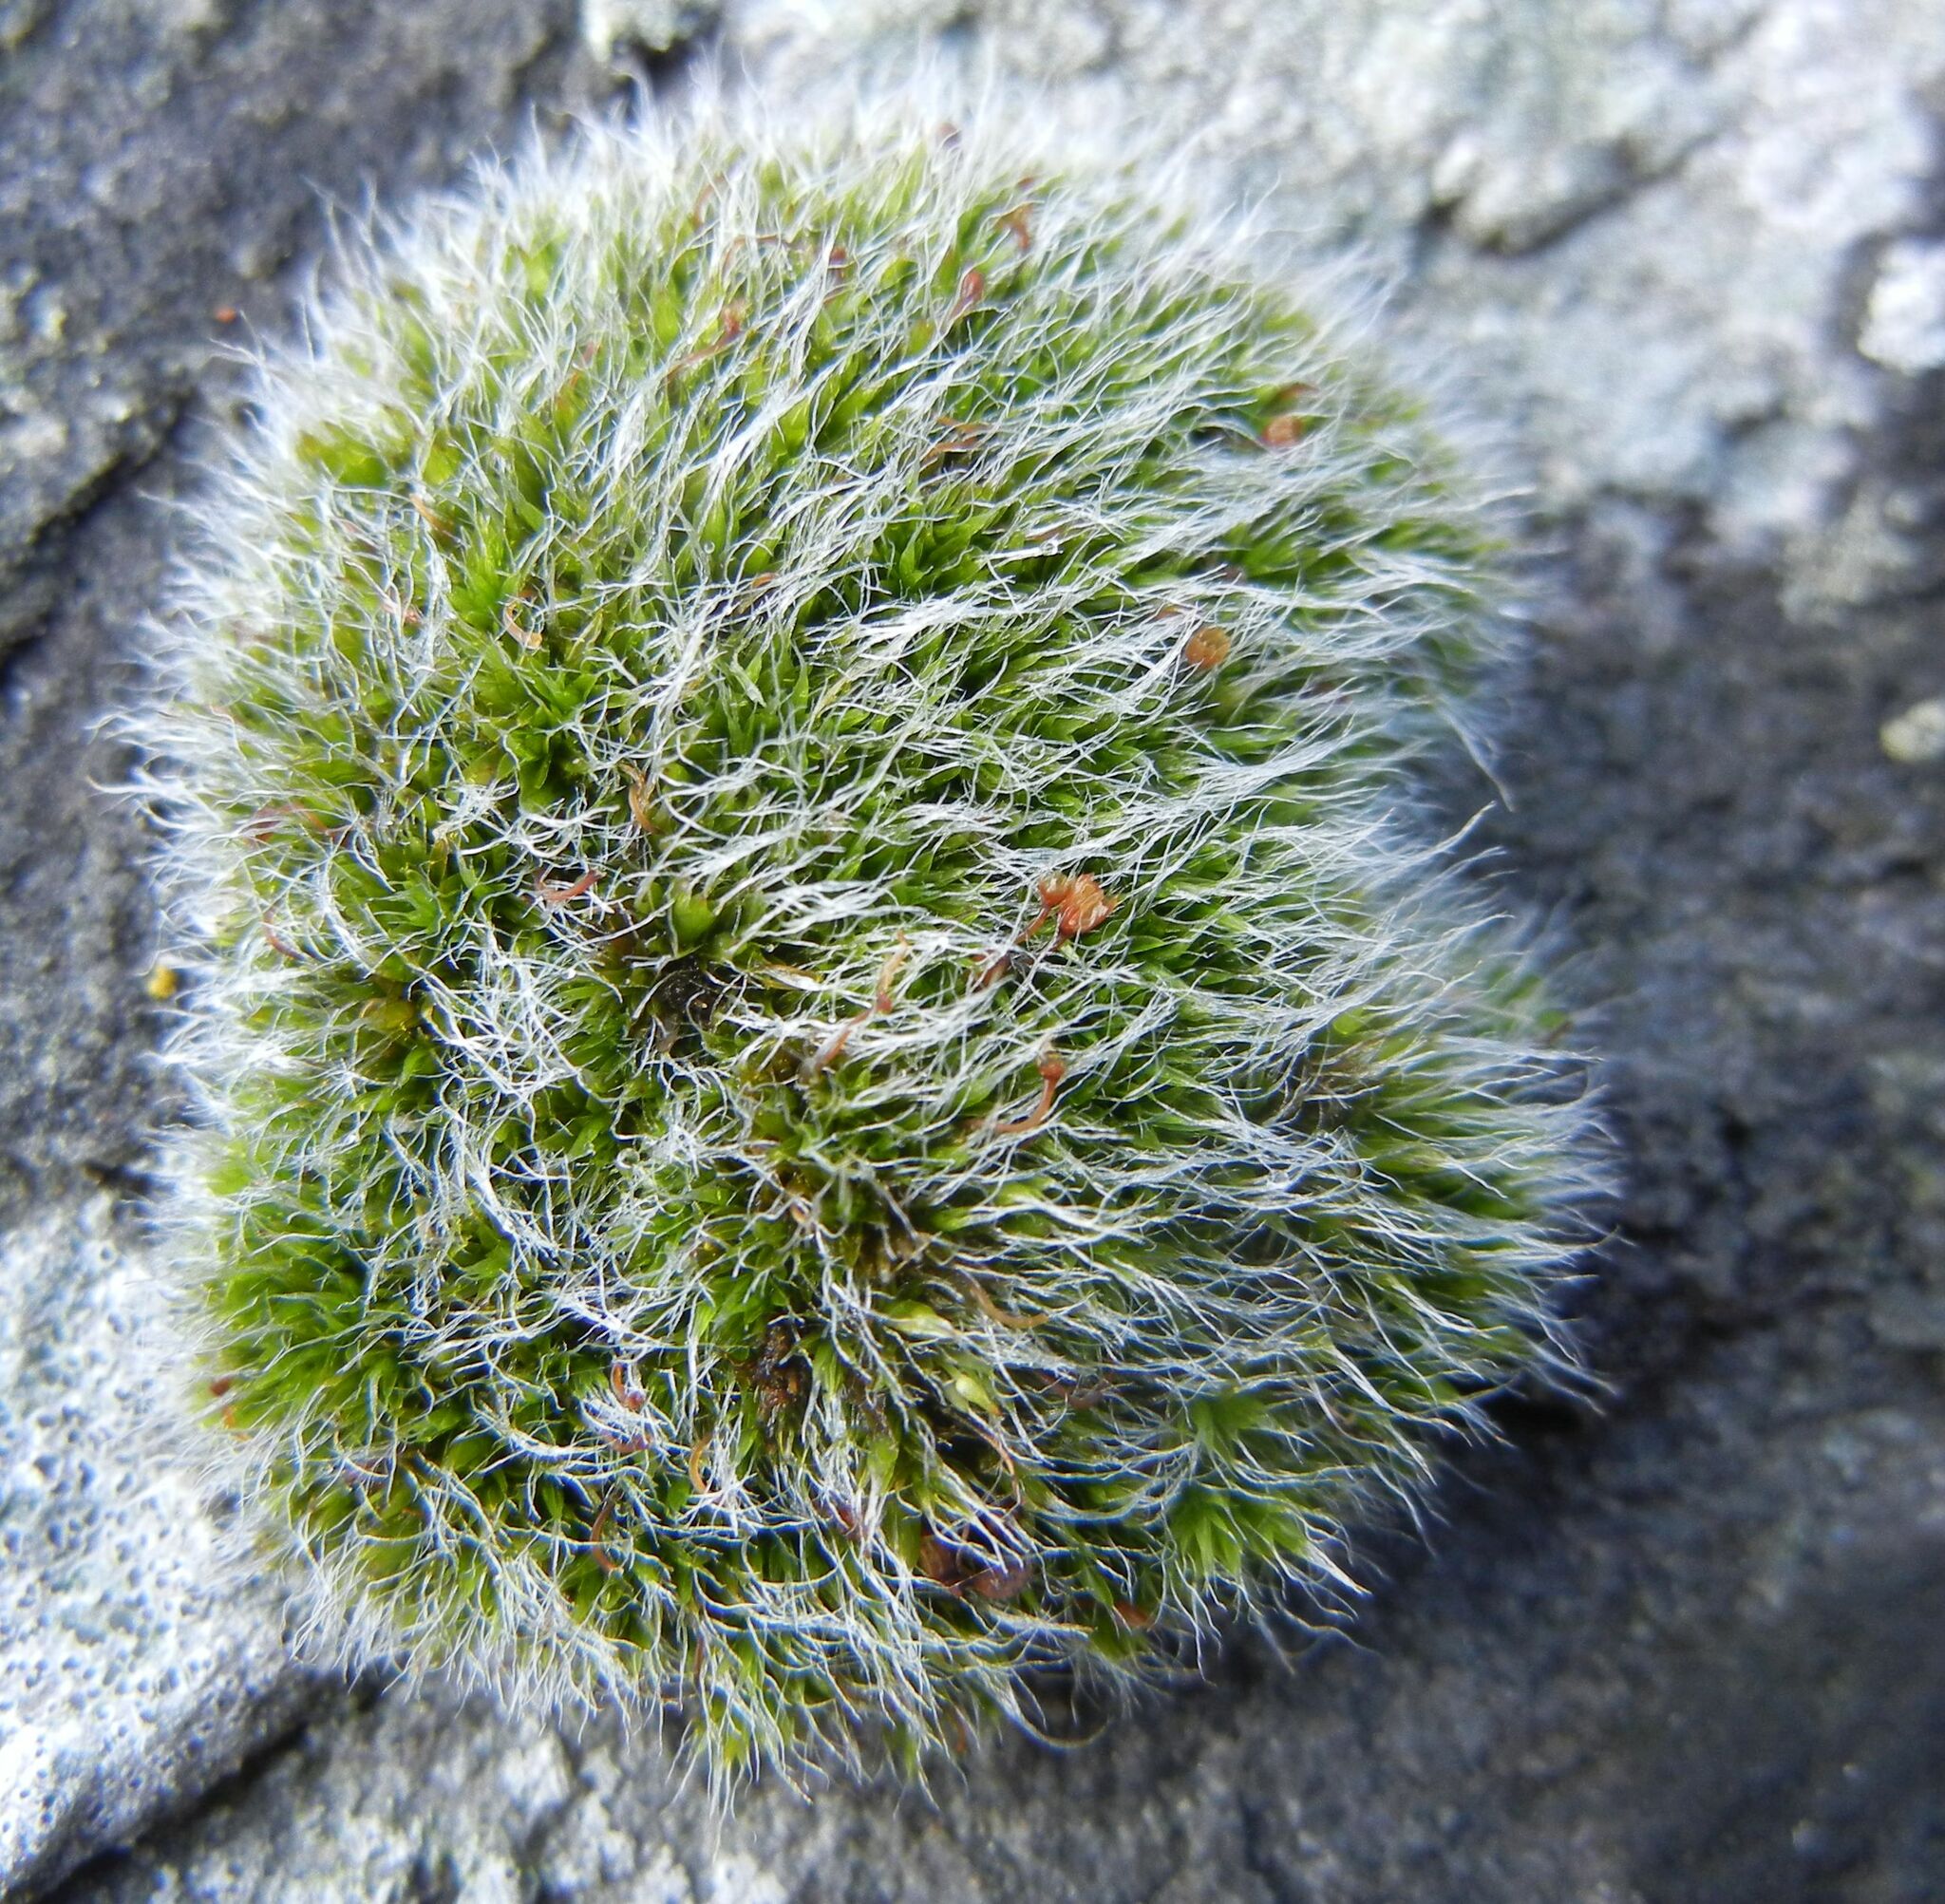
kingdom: Plantae
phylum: Bryophyta
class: Bryopsida
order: Grimmiales
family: Grimmiaceae
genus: Grimmia
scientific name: Grimmia pulvinata
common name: Grey-cushioned grimmia
